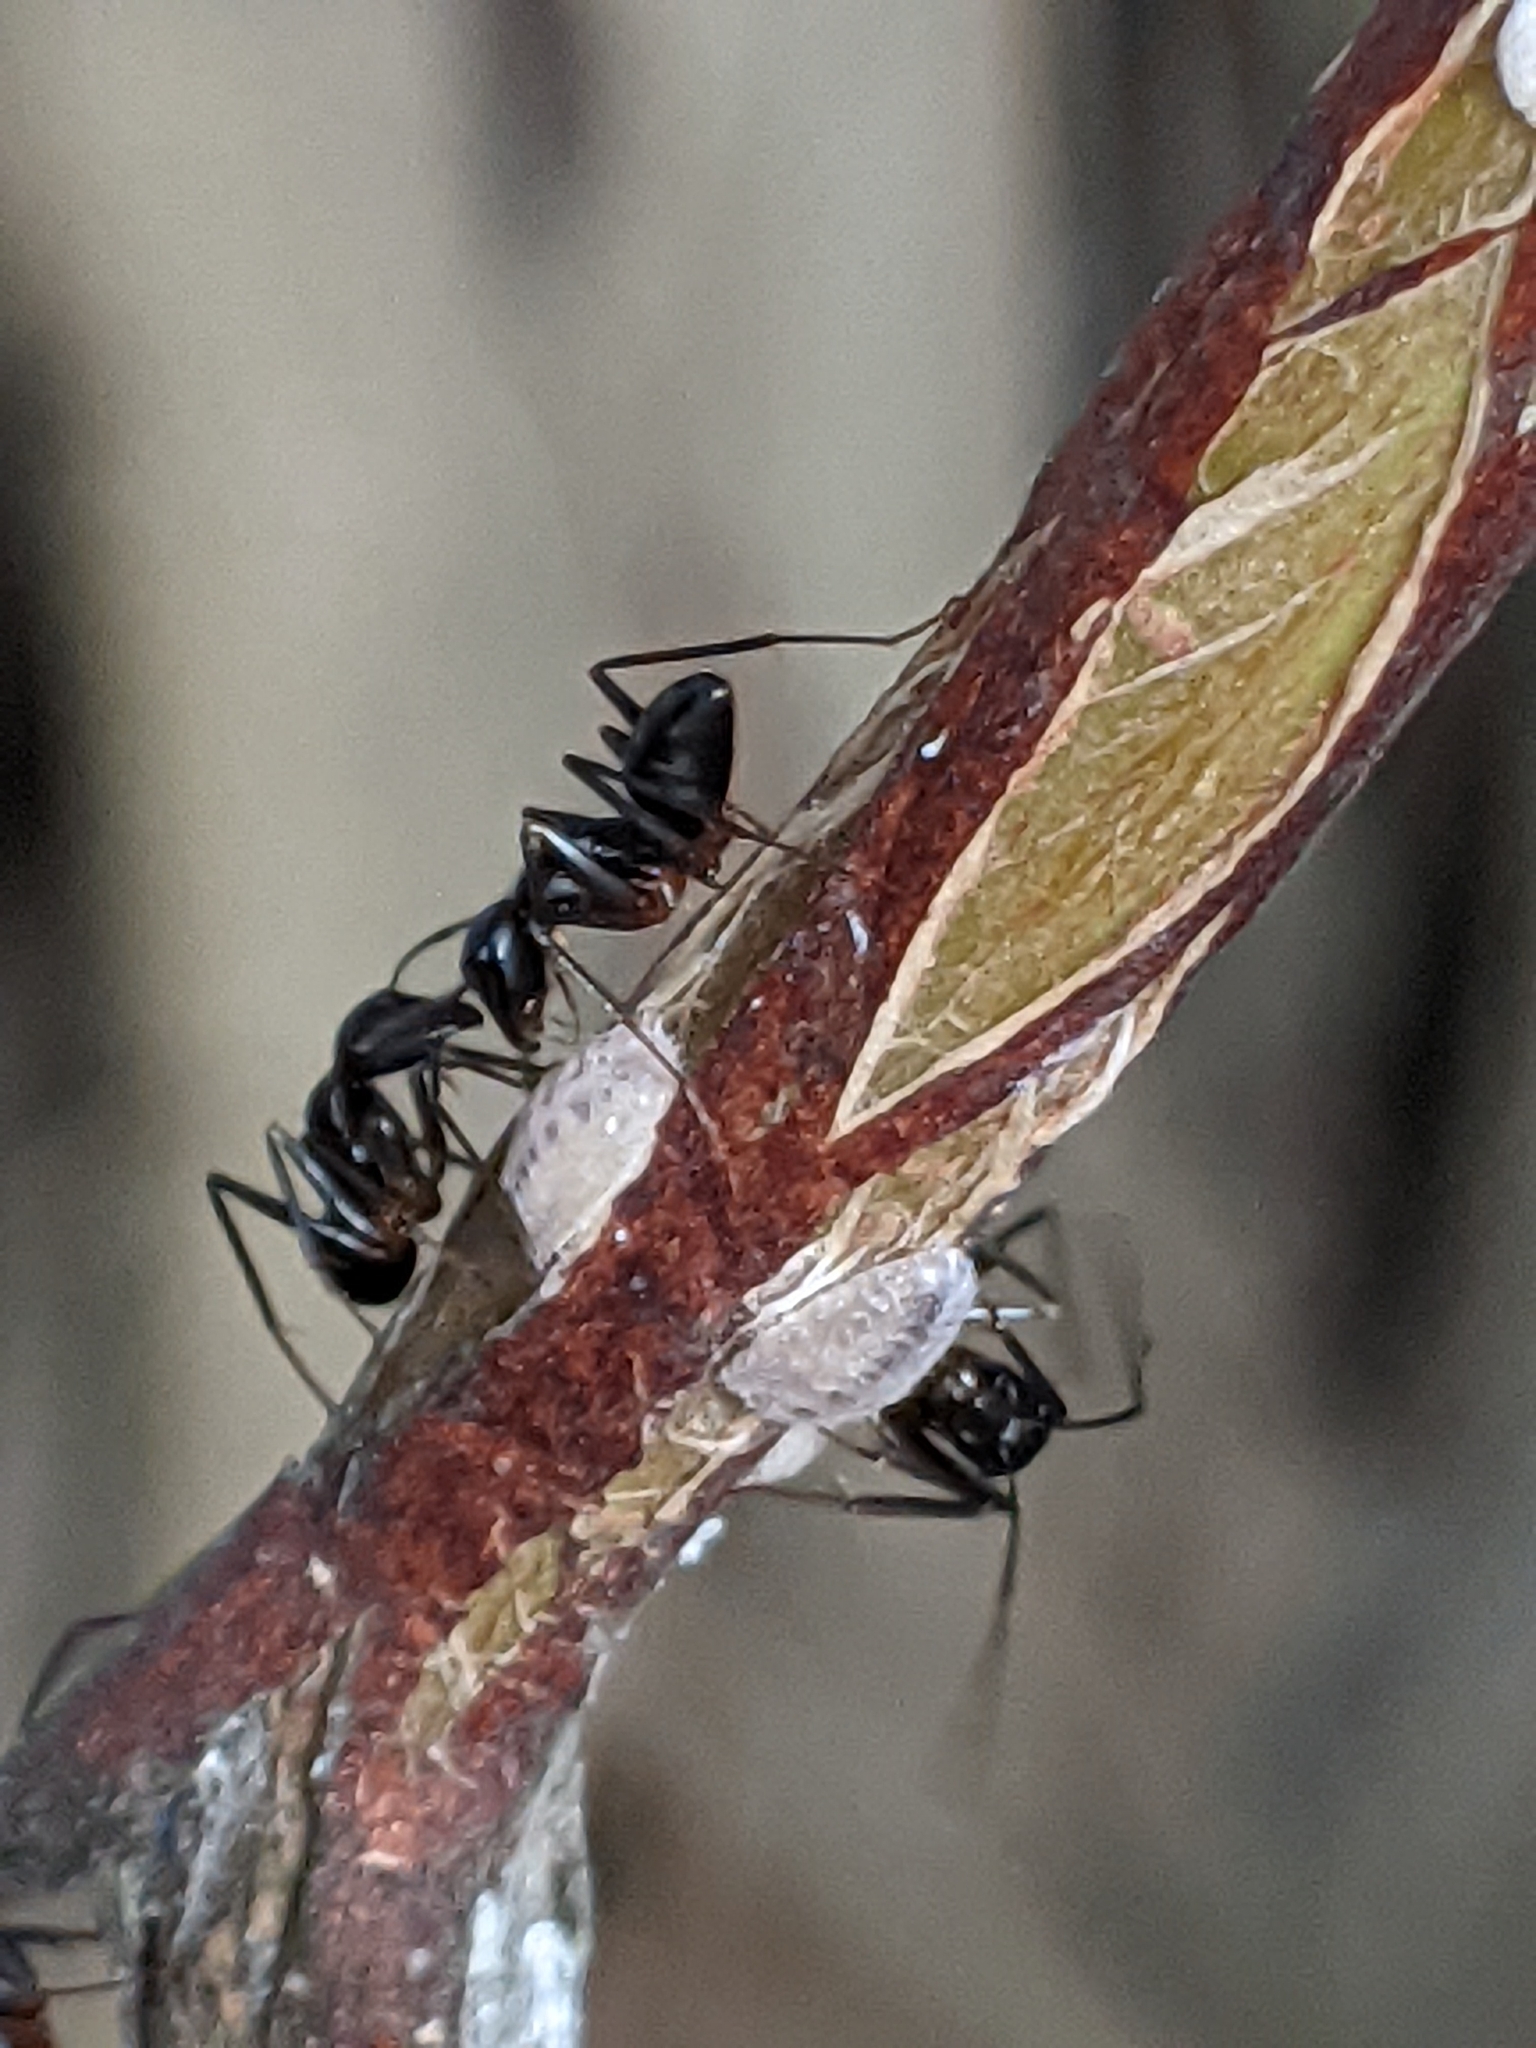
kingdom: Animalia
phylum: Arthropoda
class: Insecta
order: Hymenoptera
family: Formicidae
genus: Camponotus
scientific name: Camponotus compressus
